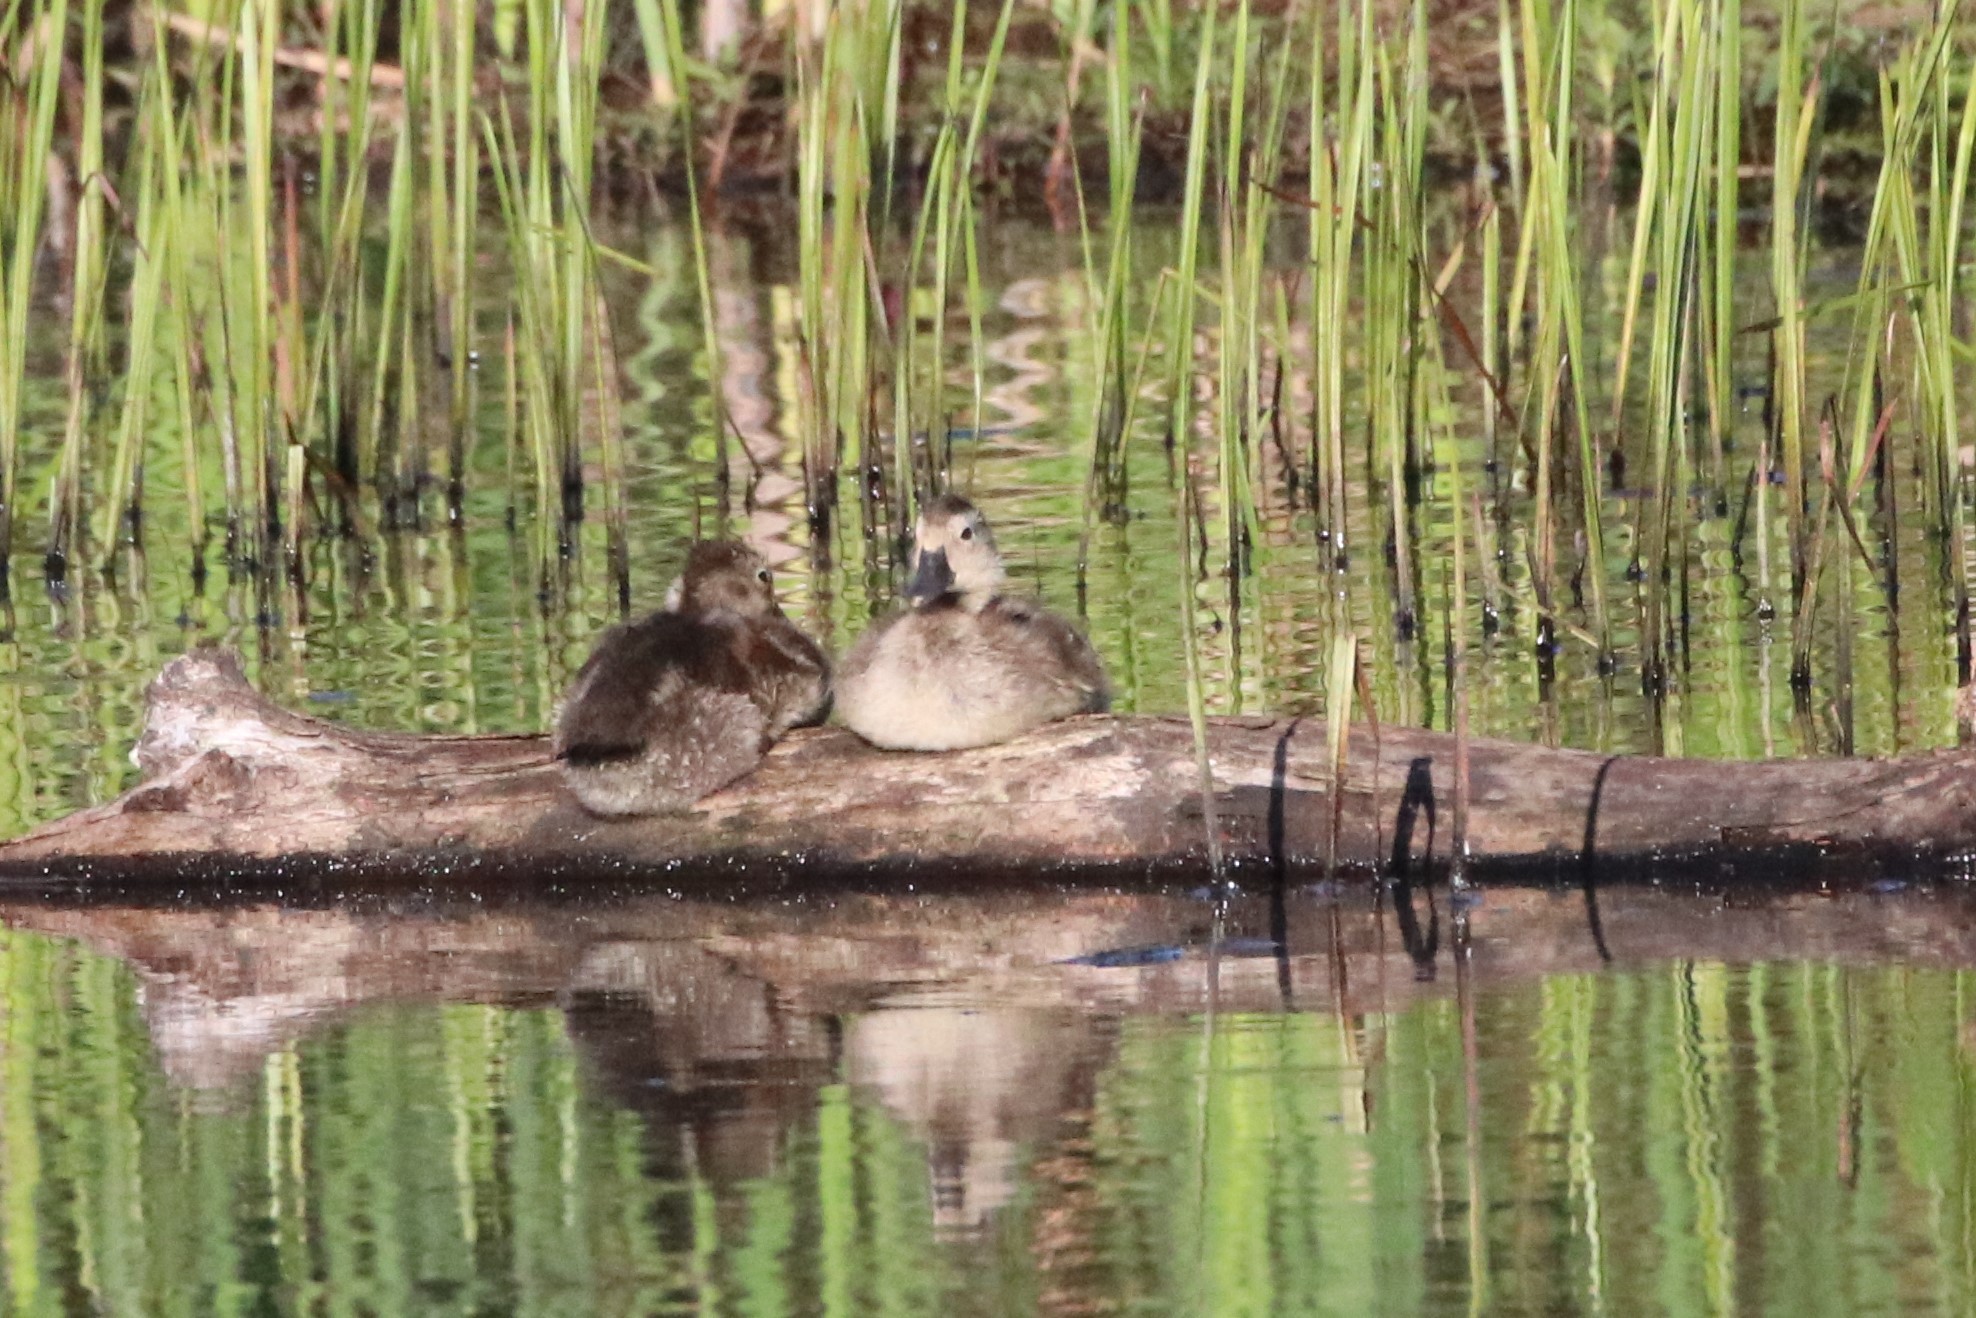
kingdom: Animalia
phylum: Chordata
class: Aves
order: Anseriformes
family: Anatidae
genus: Aythya
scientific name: Aythya collaris
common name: Ring-necked duck
